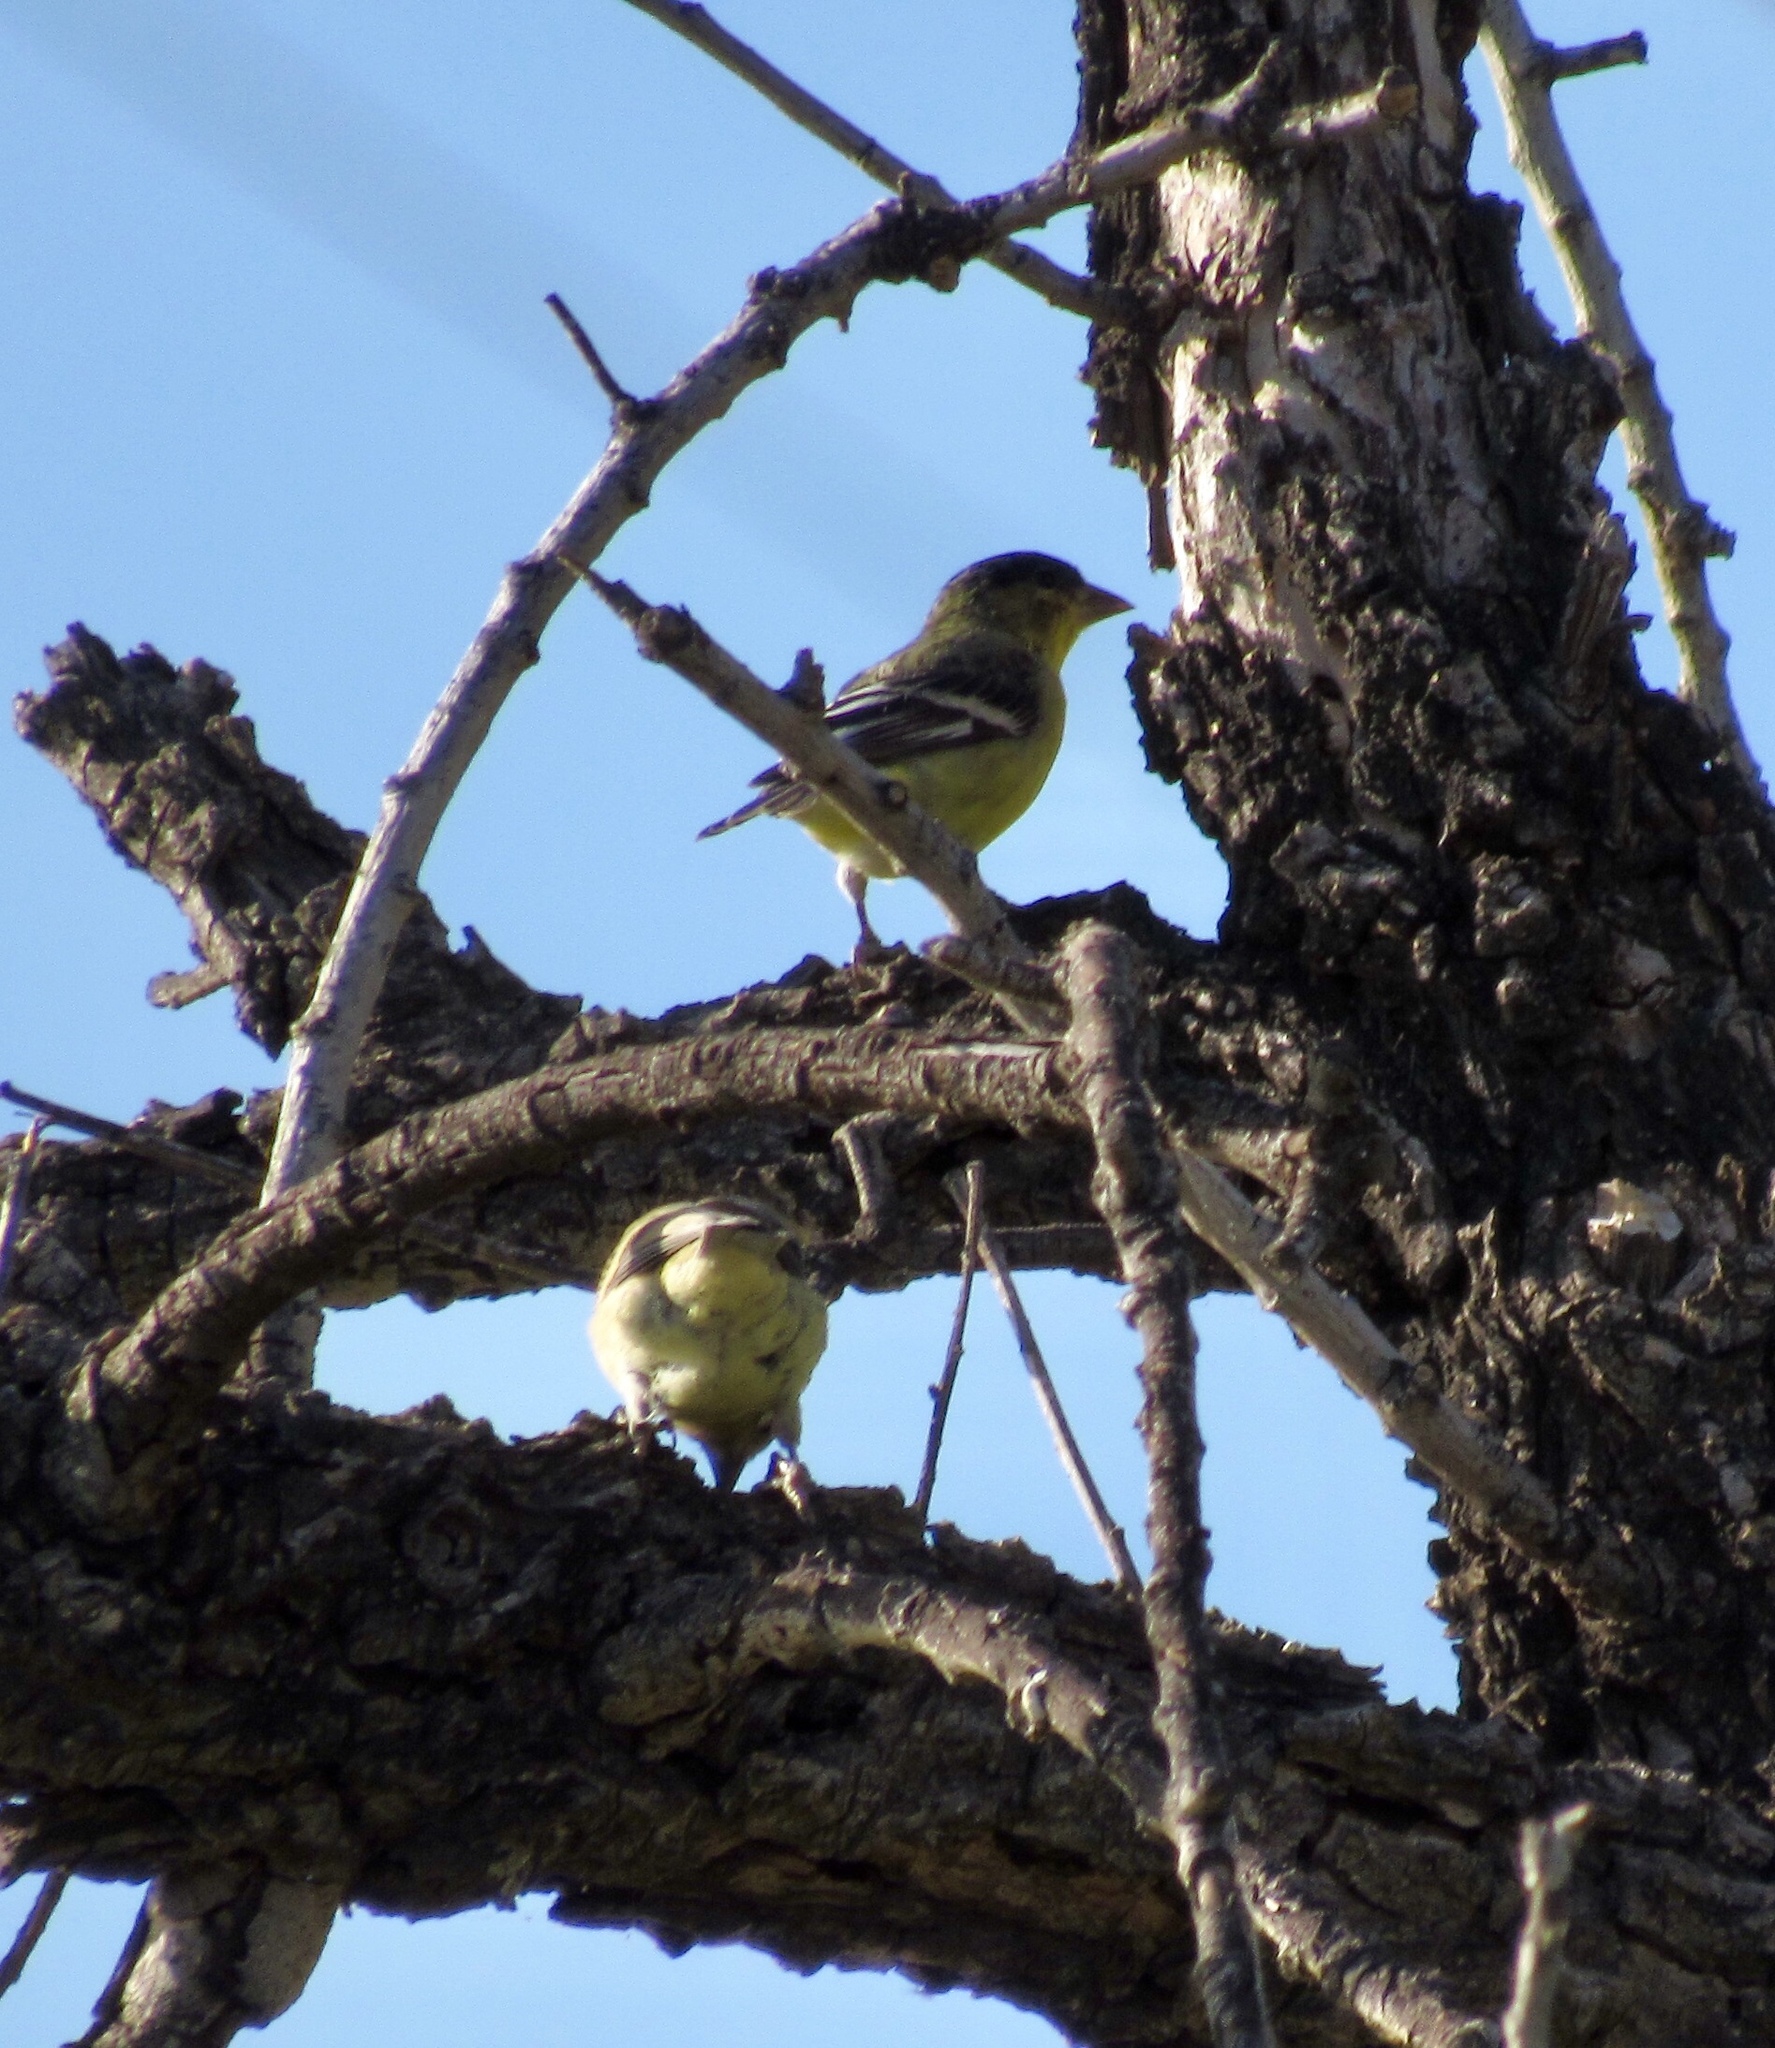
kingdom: Animalia
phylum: Chordata
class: Aves
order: Passeriformes
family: Fringillidae
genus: Spinus
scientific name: Spinus psaltria
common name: Lesser goldfinch
